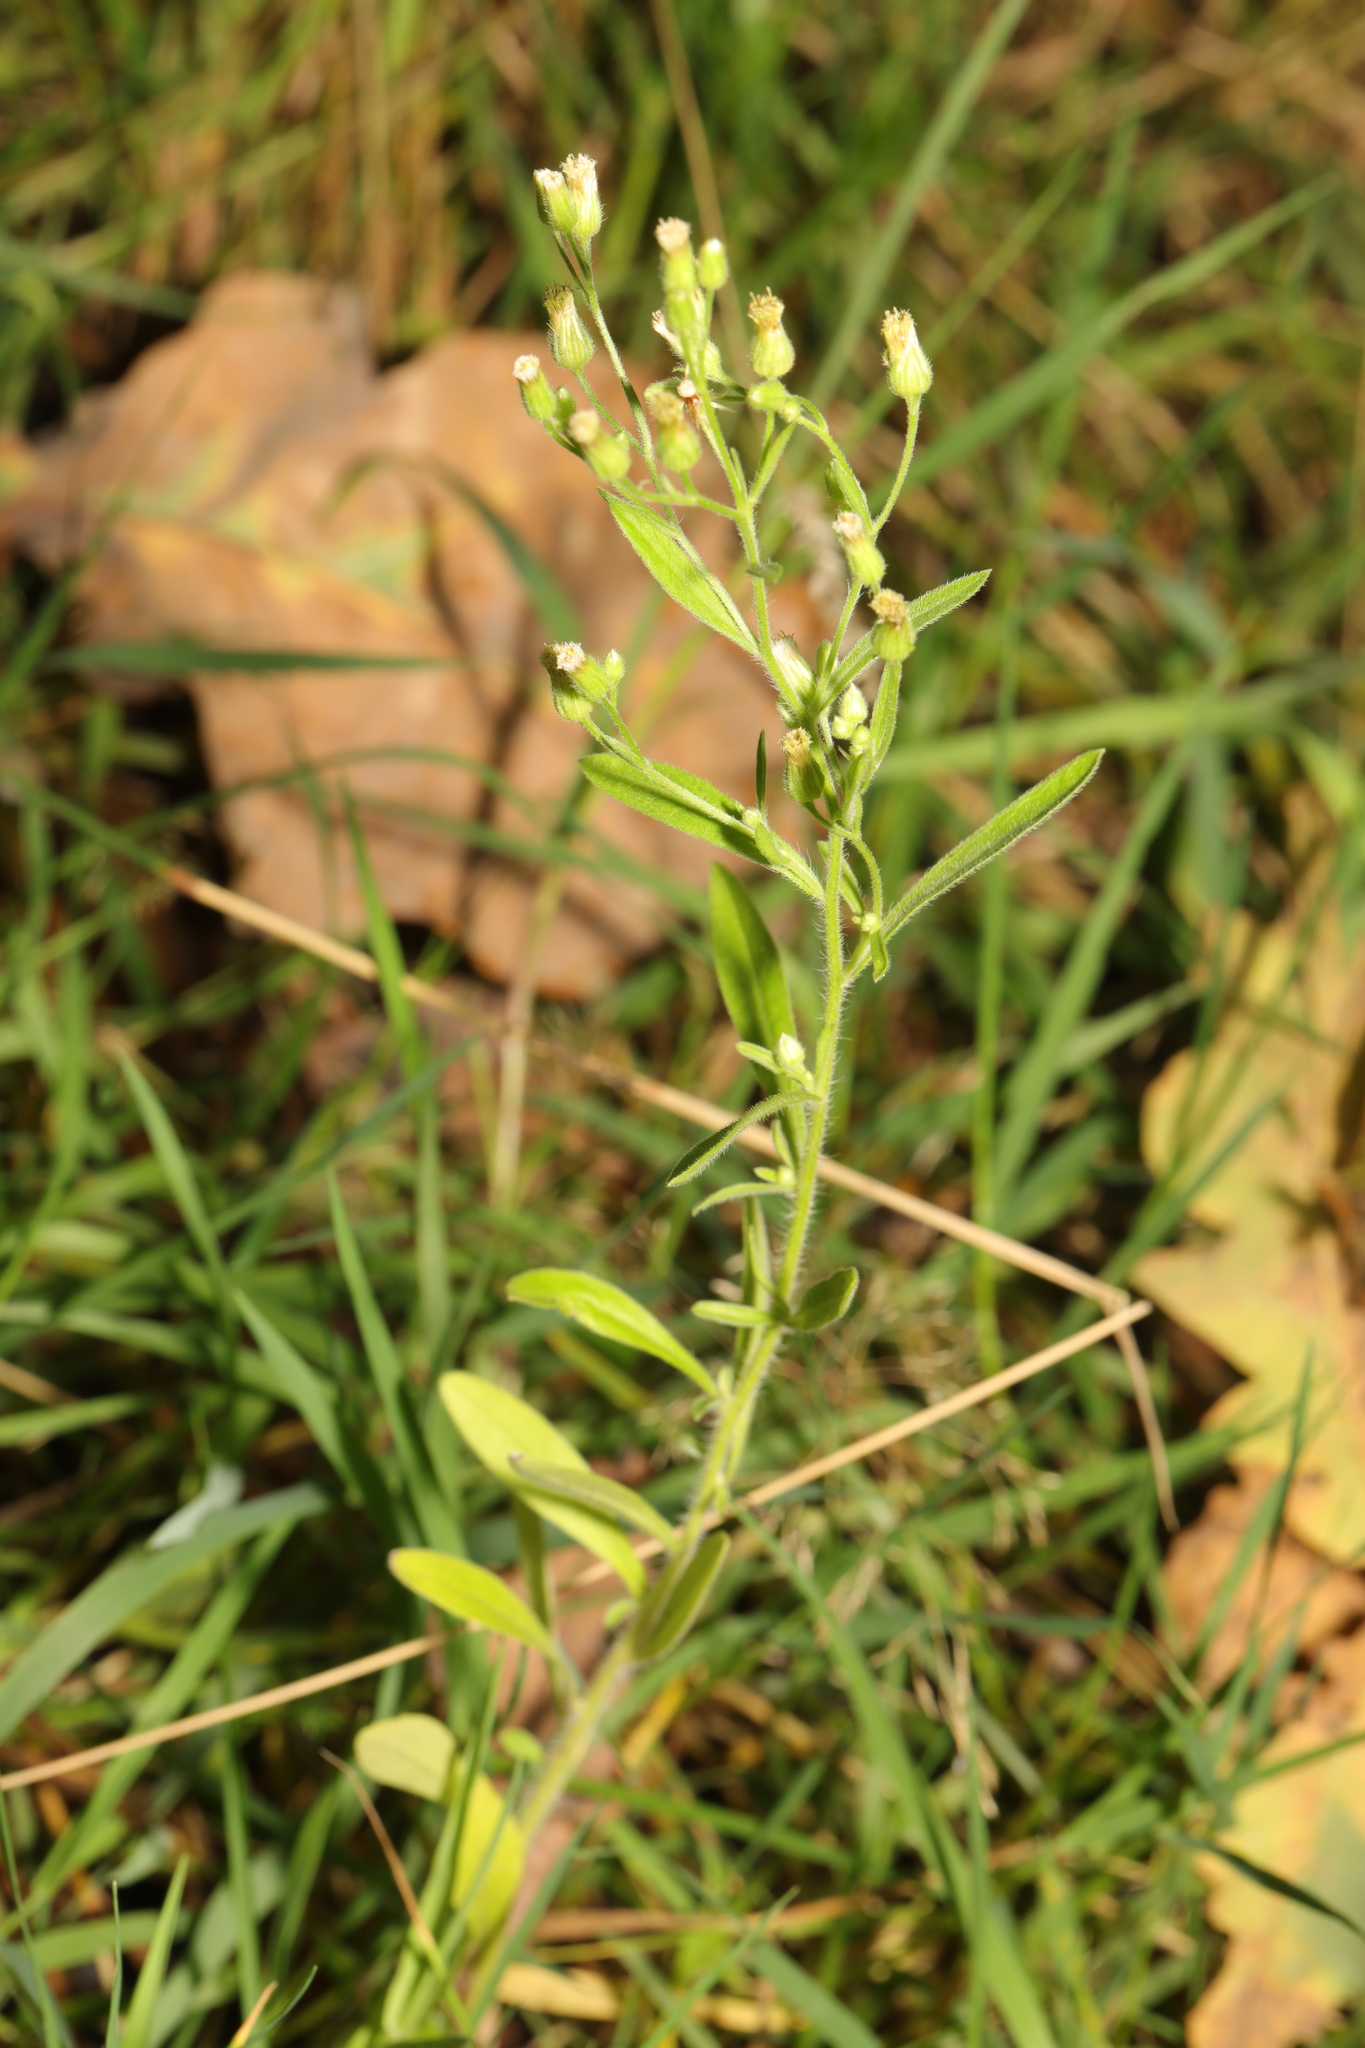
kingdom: Plantae
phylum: Tracheophyta
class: Magnoliopsida
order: Asterales
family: Asteraceae
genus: Erigeron
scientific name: Erigeron canadensis
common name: Canadian fleabane
